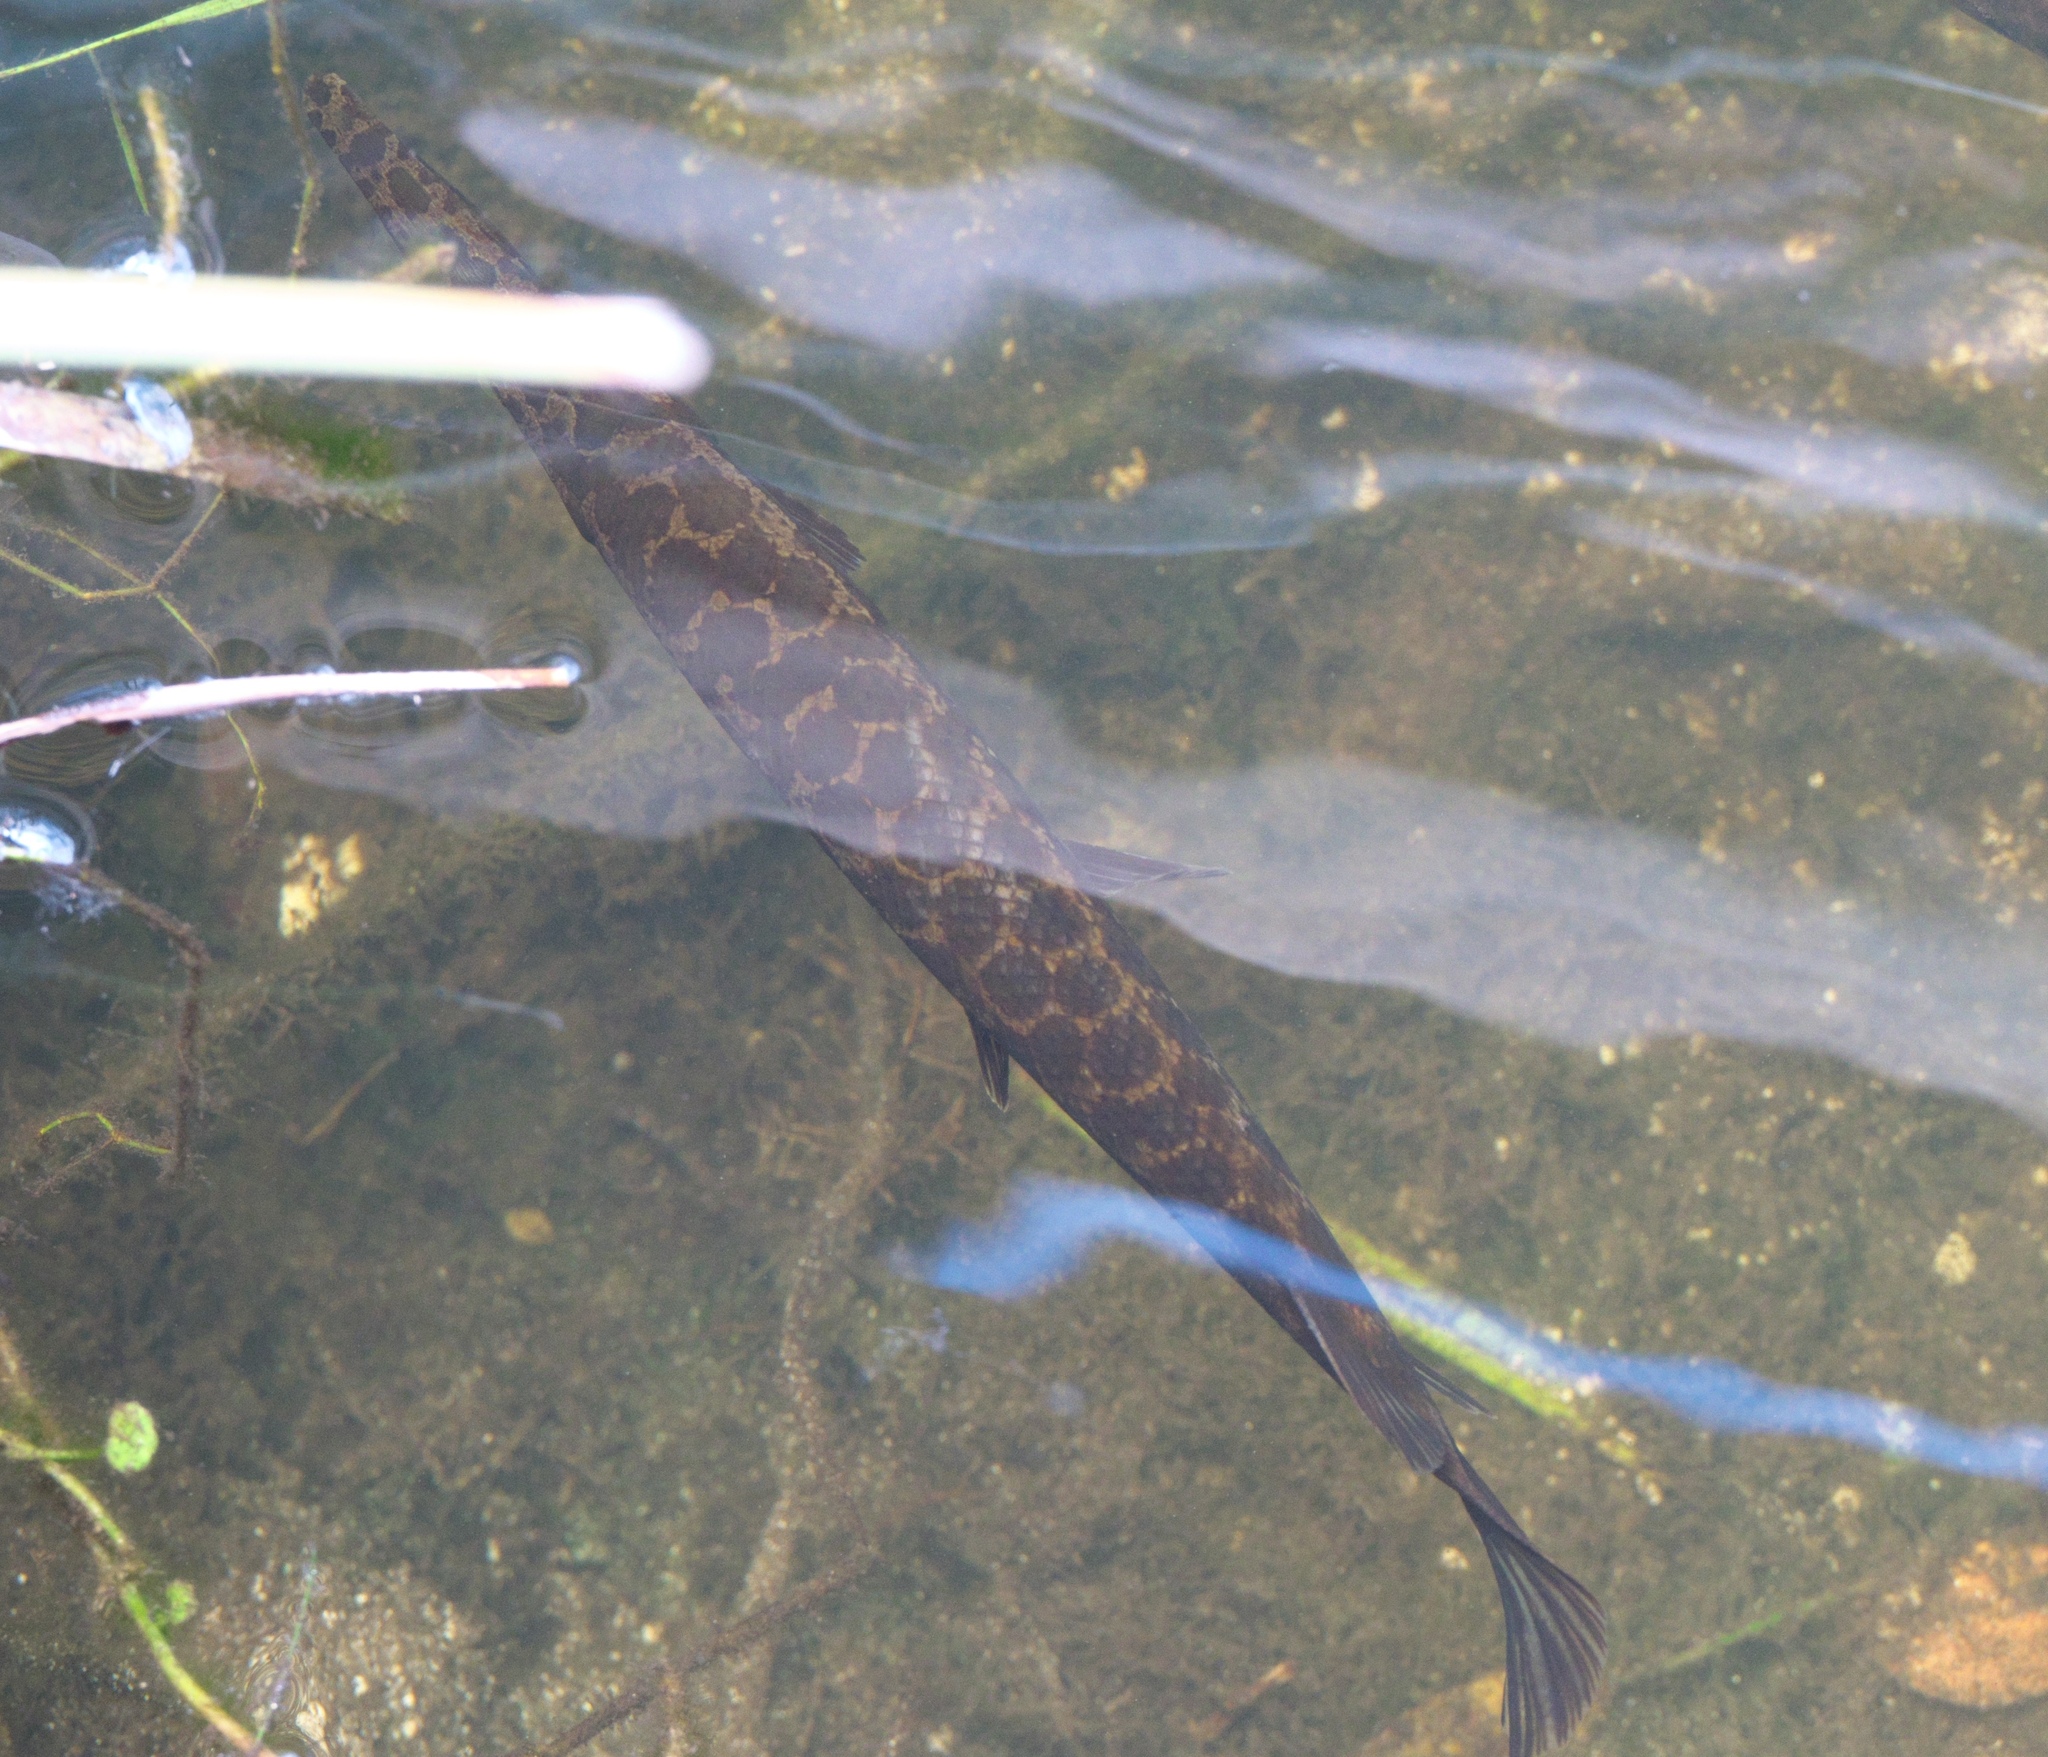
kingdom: Animalia
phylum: Chordata
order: Lepisosteiformes
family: Lepisosteidae
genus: Lepisosteus
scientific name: Lepisosteus platyrhincus
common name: Florida gar
